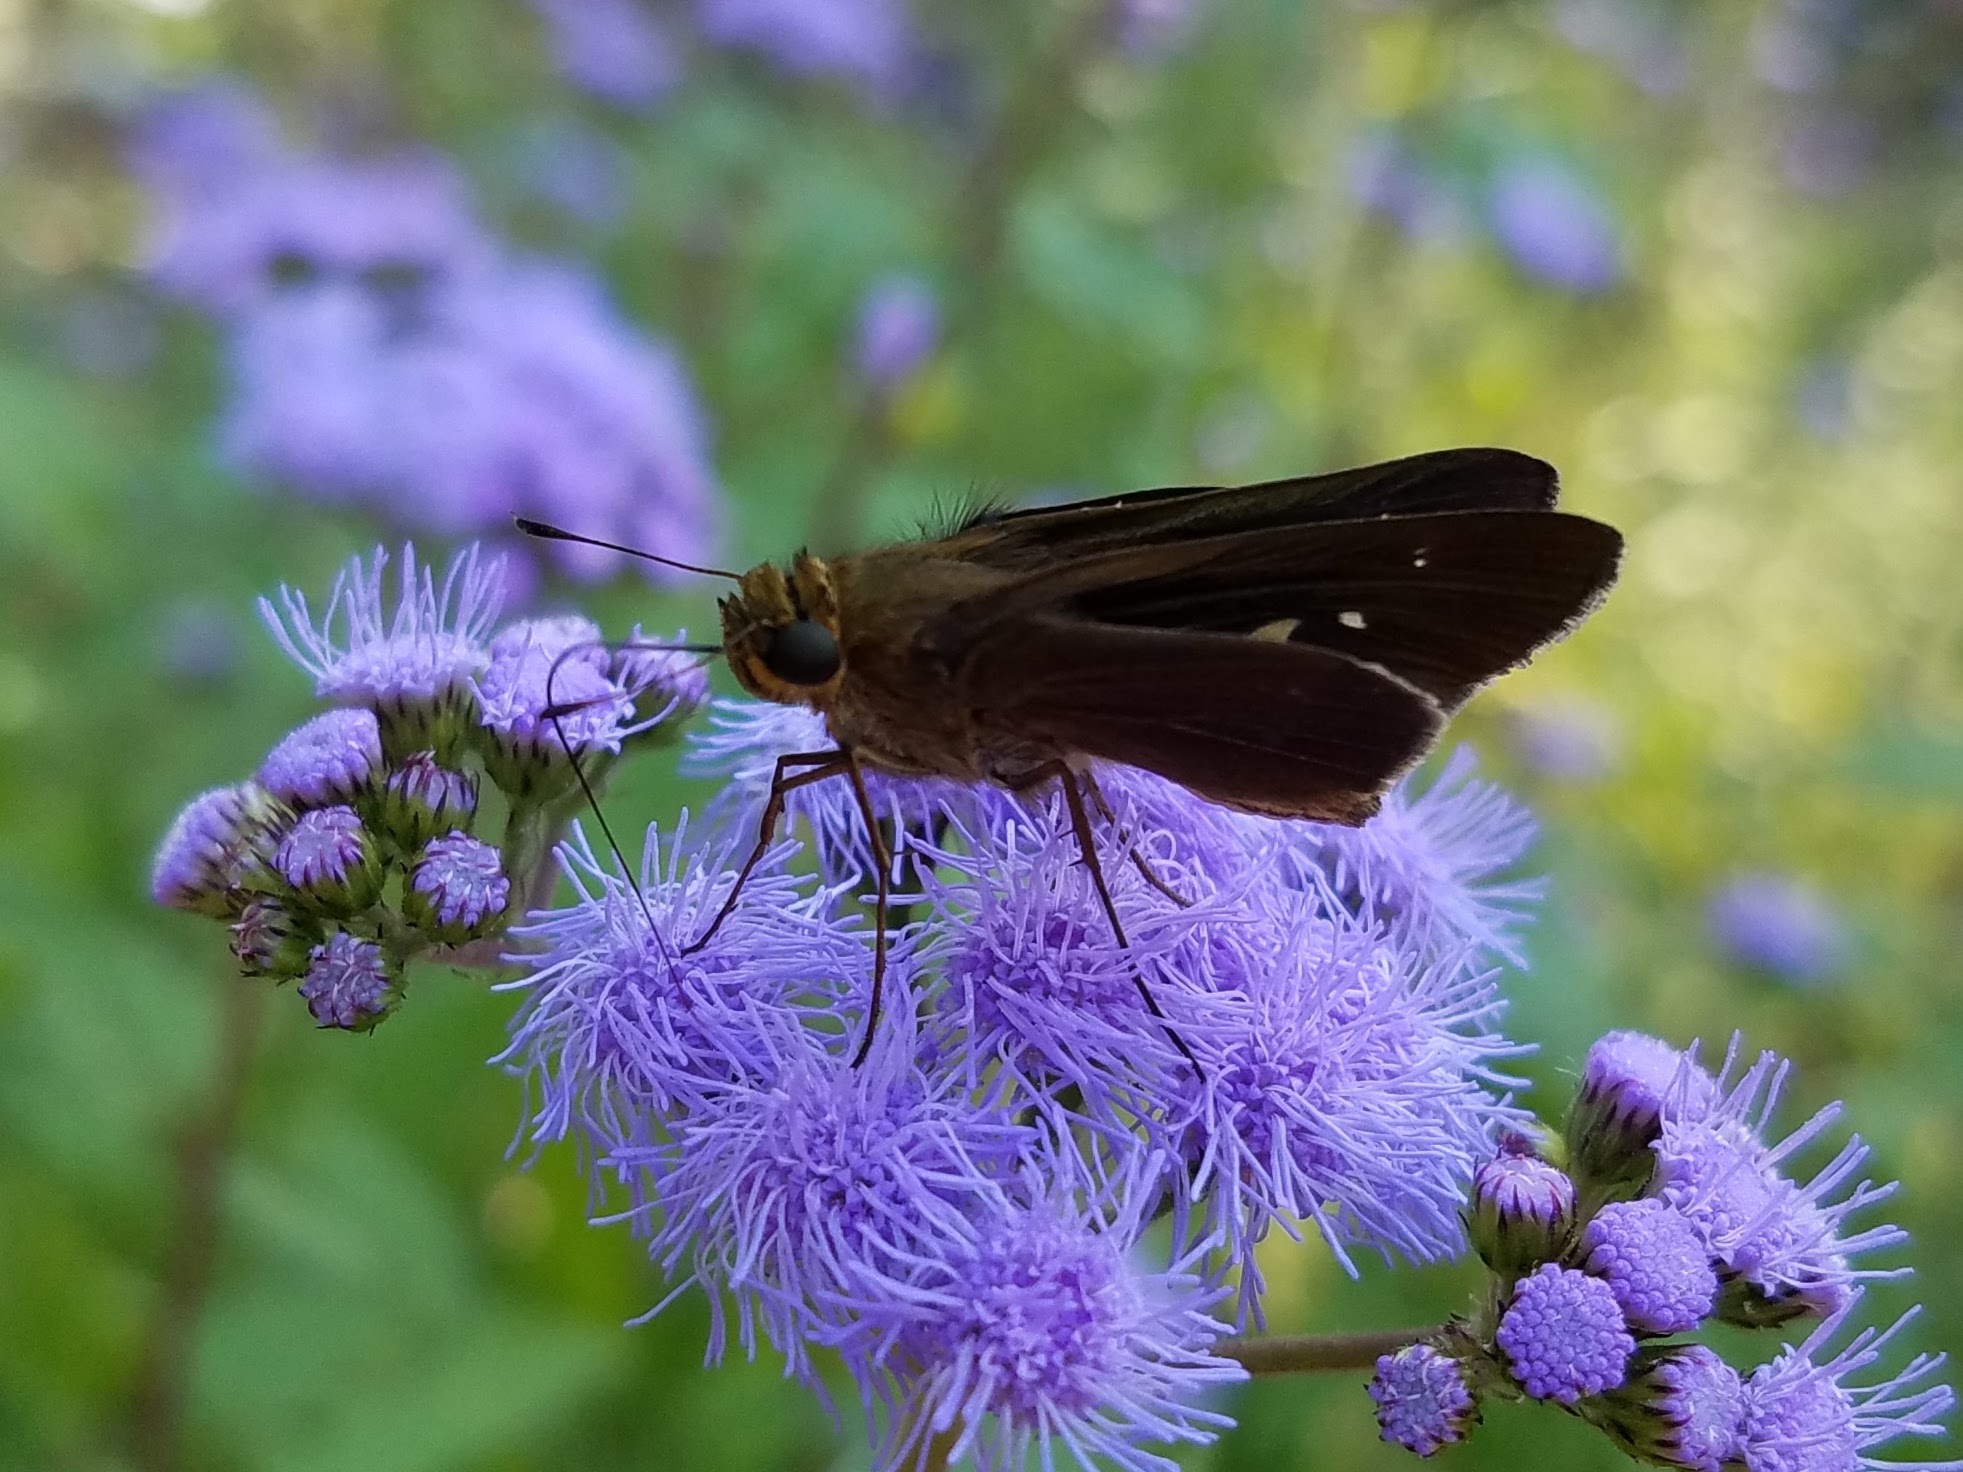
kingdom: Animalia
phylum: Arthropoda
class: Insecta
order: Lepidoptera
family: Hesperiidae
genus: Panoquina
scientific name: Panoquina ocola
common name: Ocola skipper
